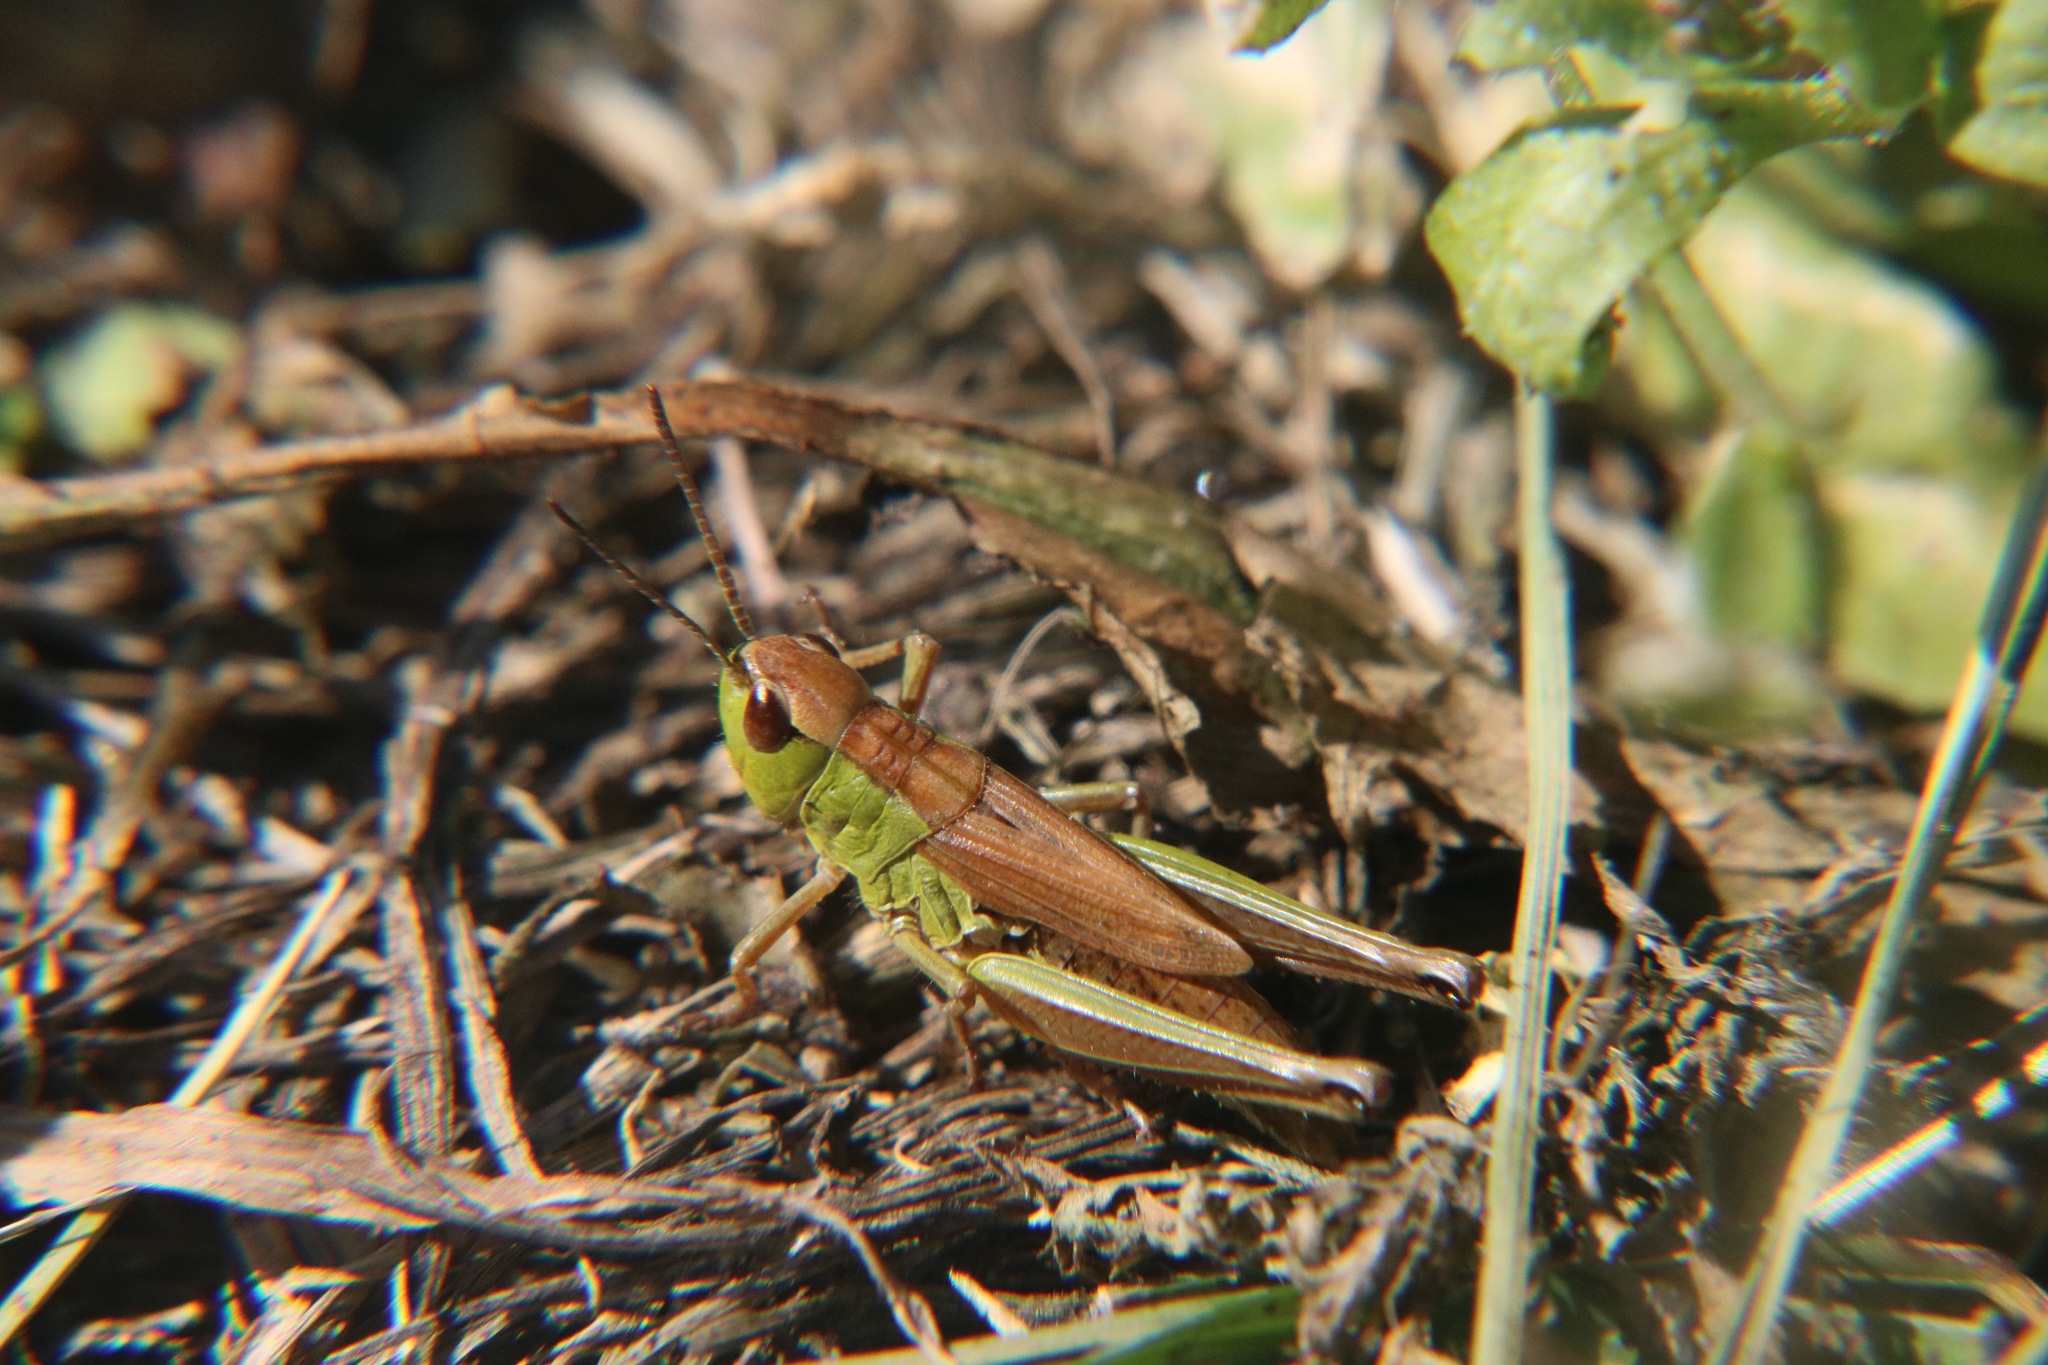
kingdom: Animalia
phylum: Arthropoda
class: Insecta
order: Orthoptera
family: Acrididae
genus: Pseudochorthippus
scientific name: Pseudochorthippus montanus
